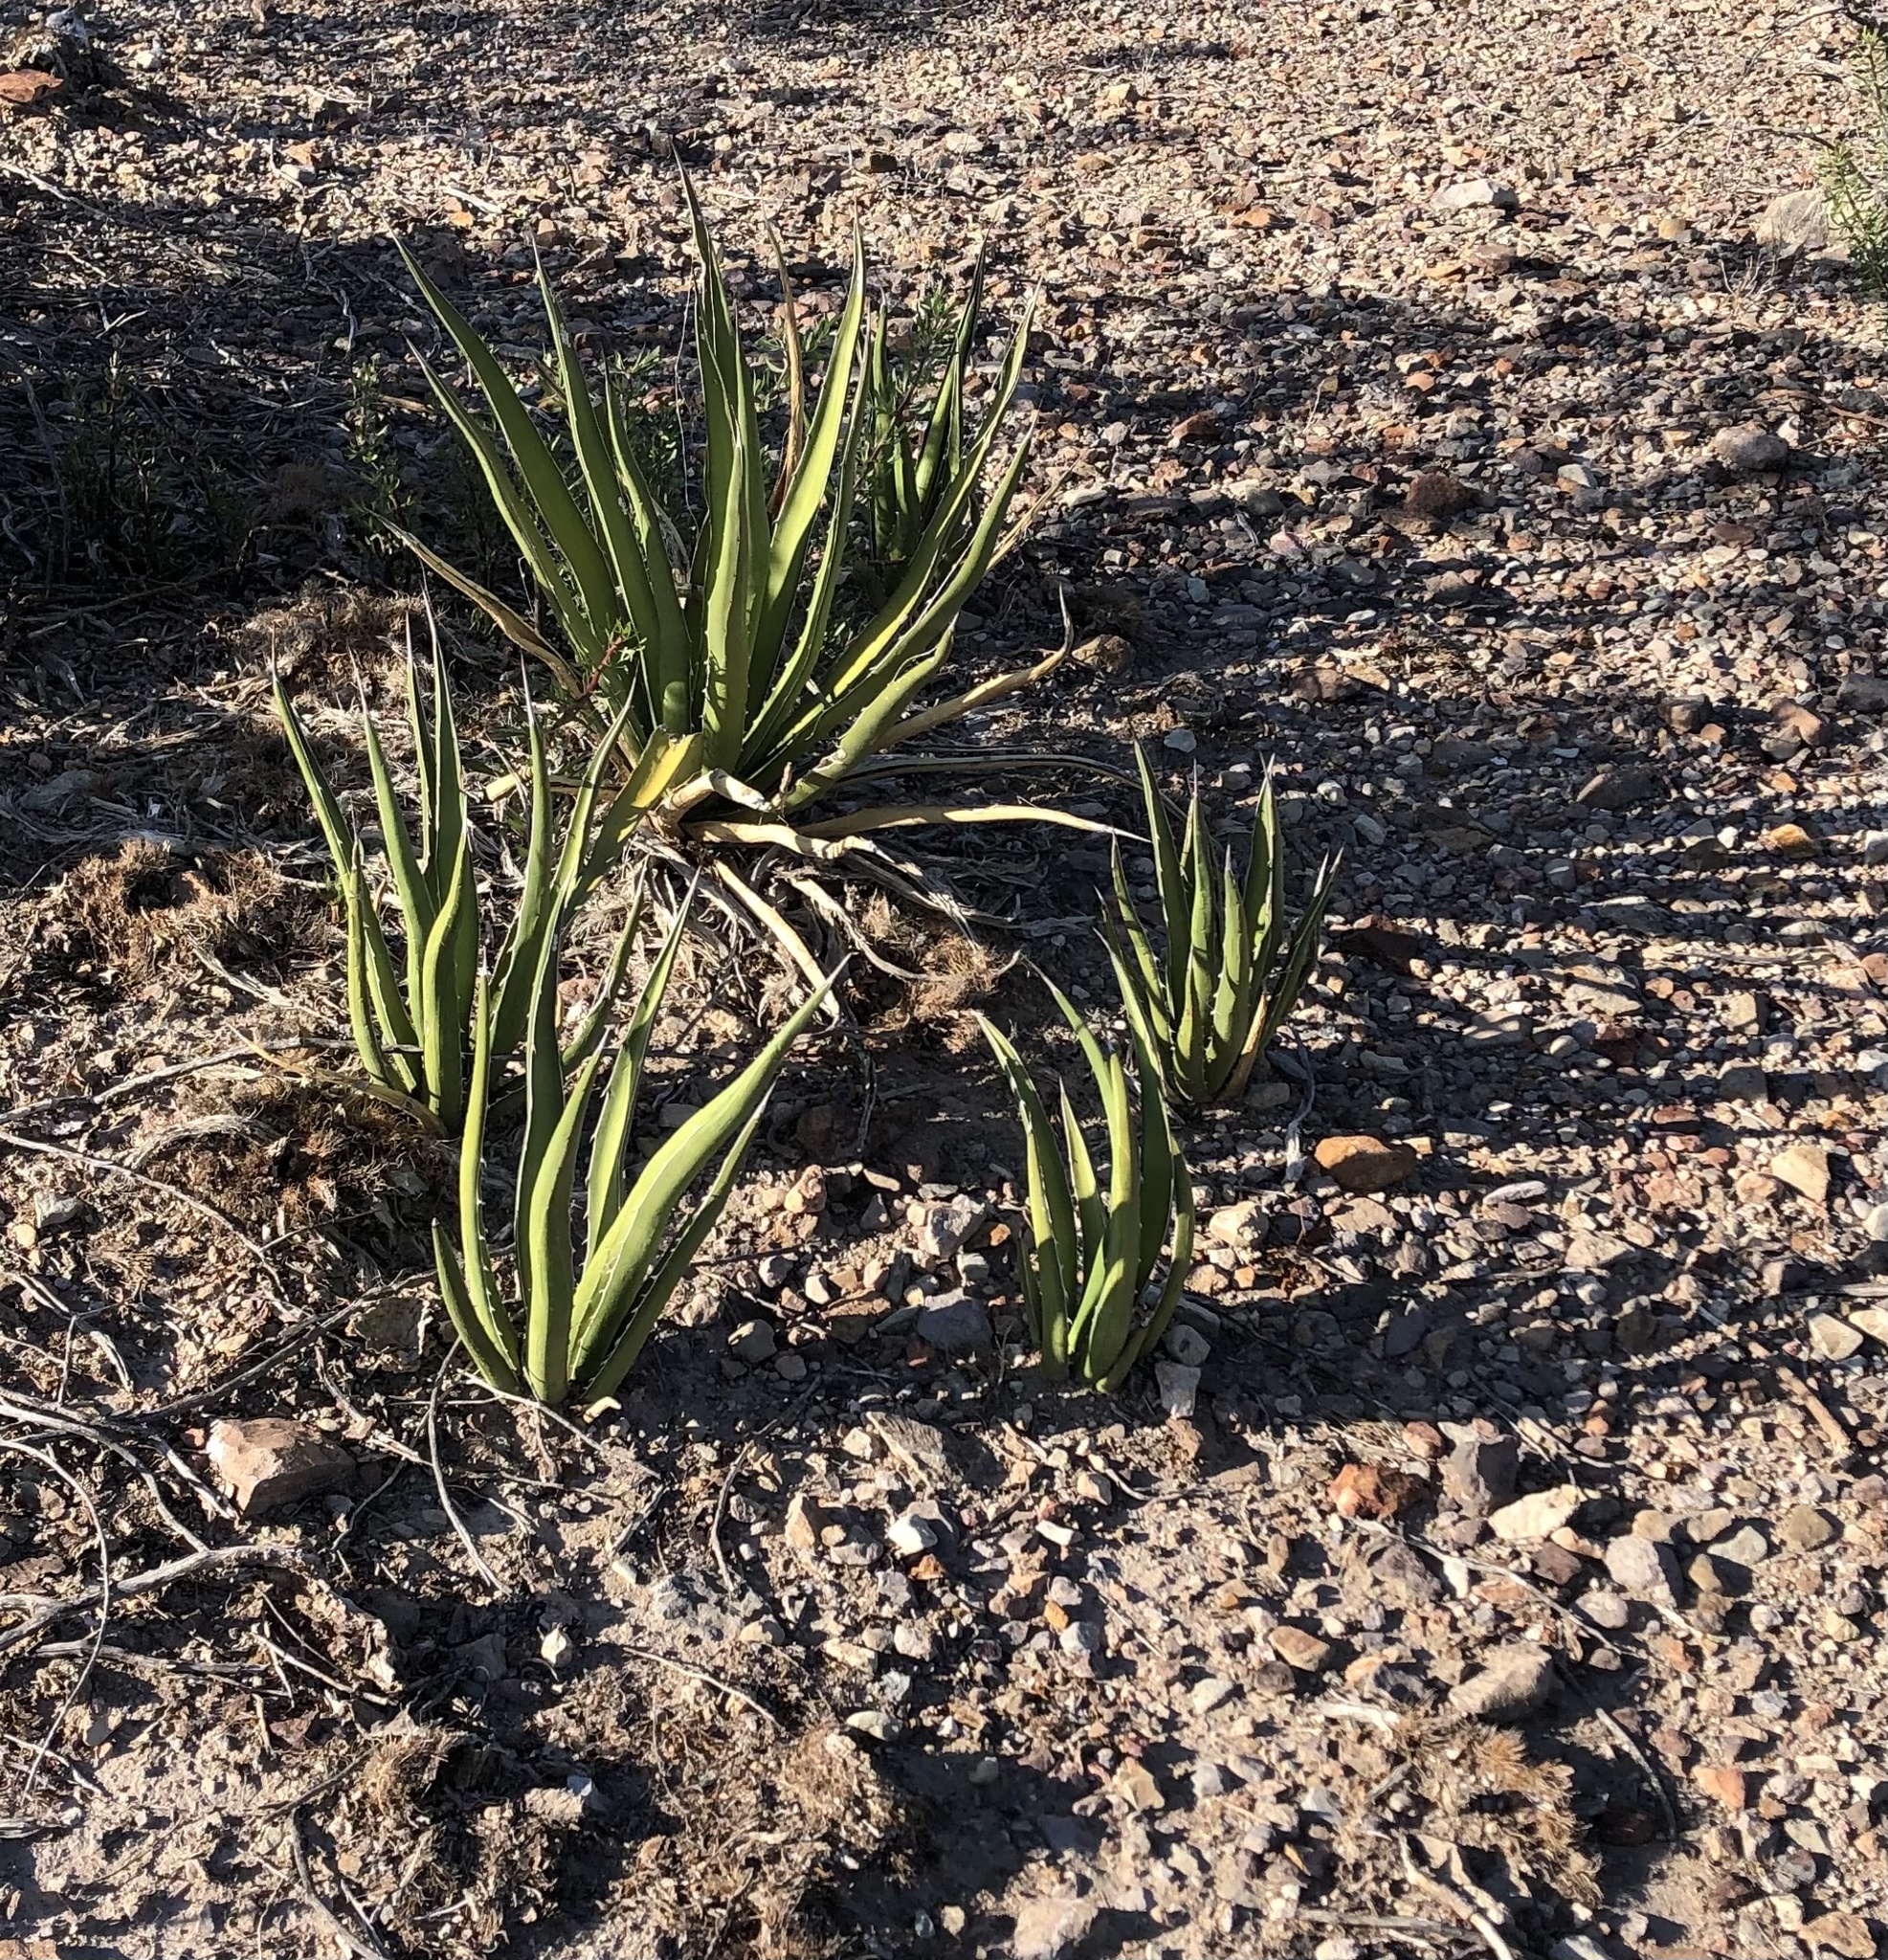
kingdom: Plantae
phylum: Tracheophyta
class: Liliopsida
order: Asparagales
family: Asparagaceae
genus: Agave
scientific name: Agave lechuguilla
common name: Lecheguilla agave
